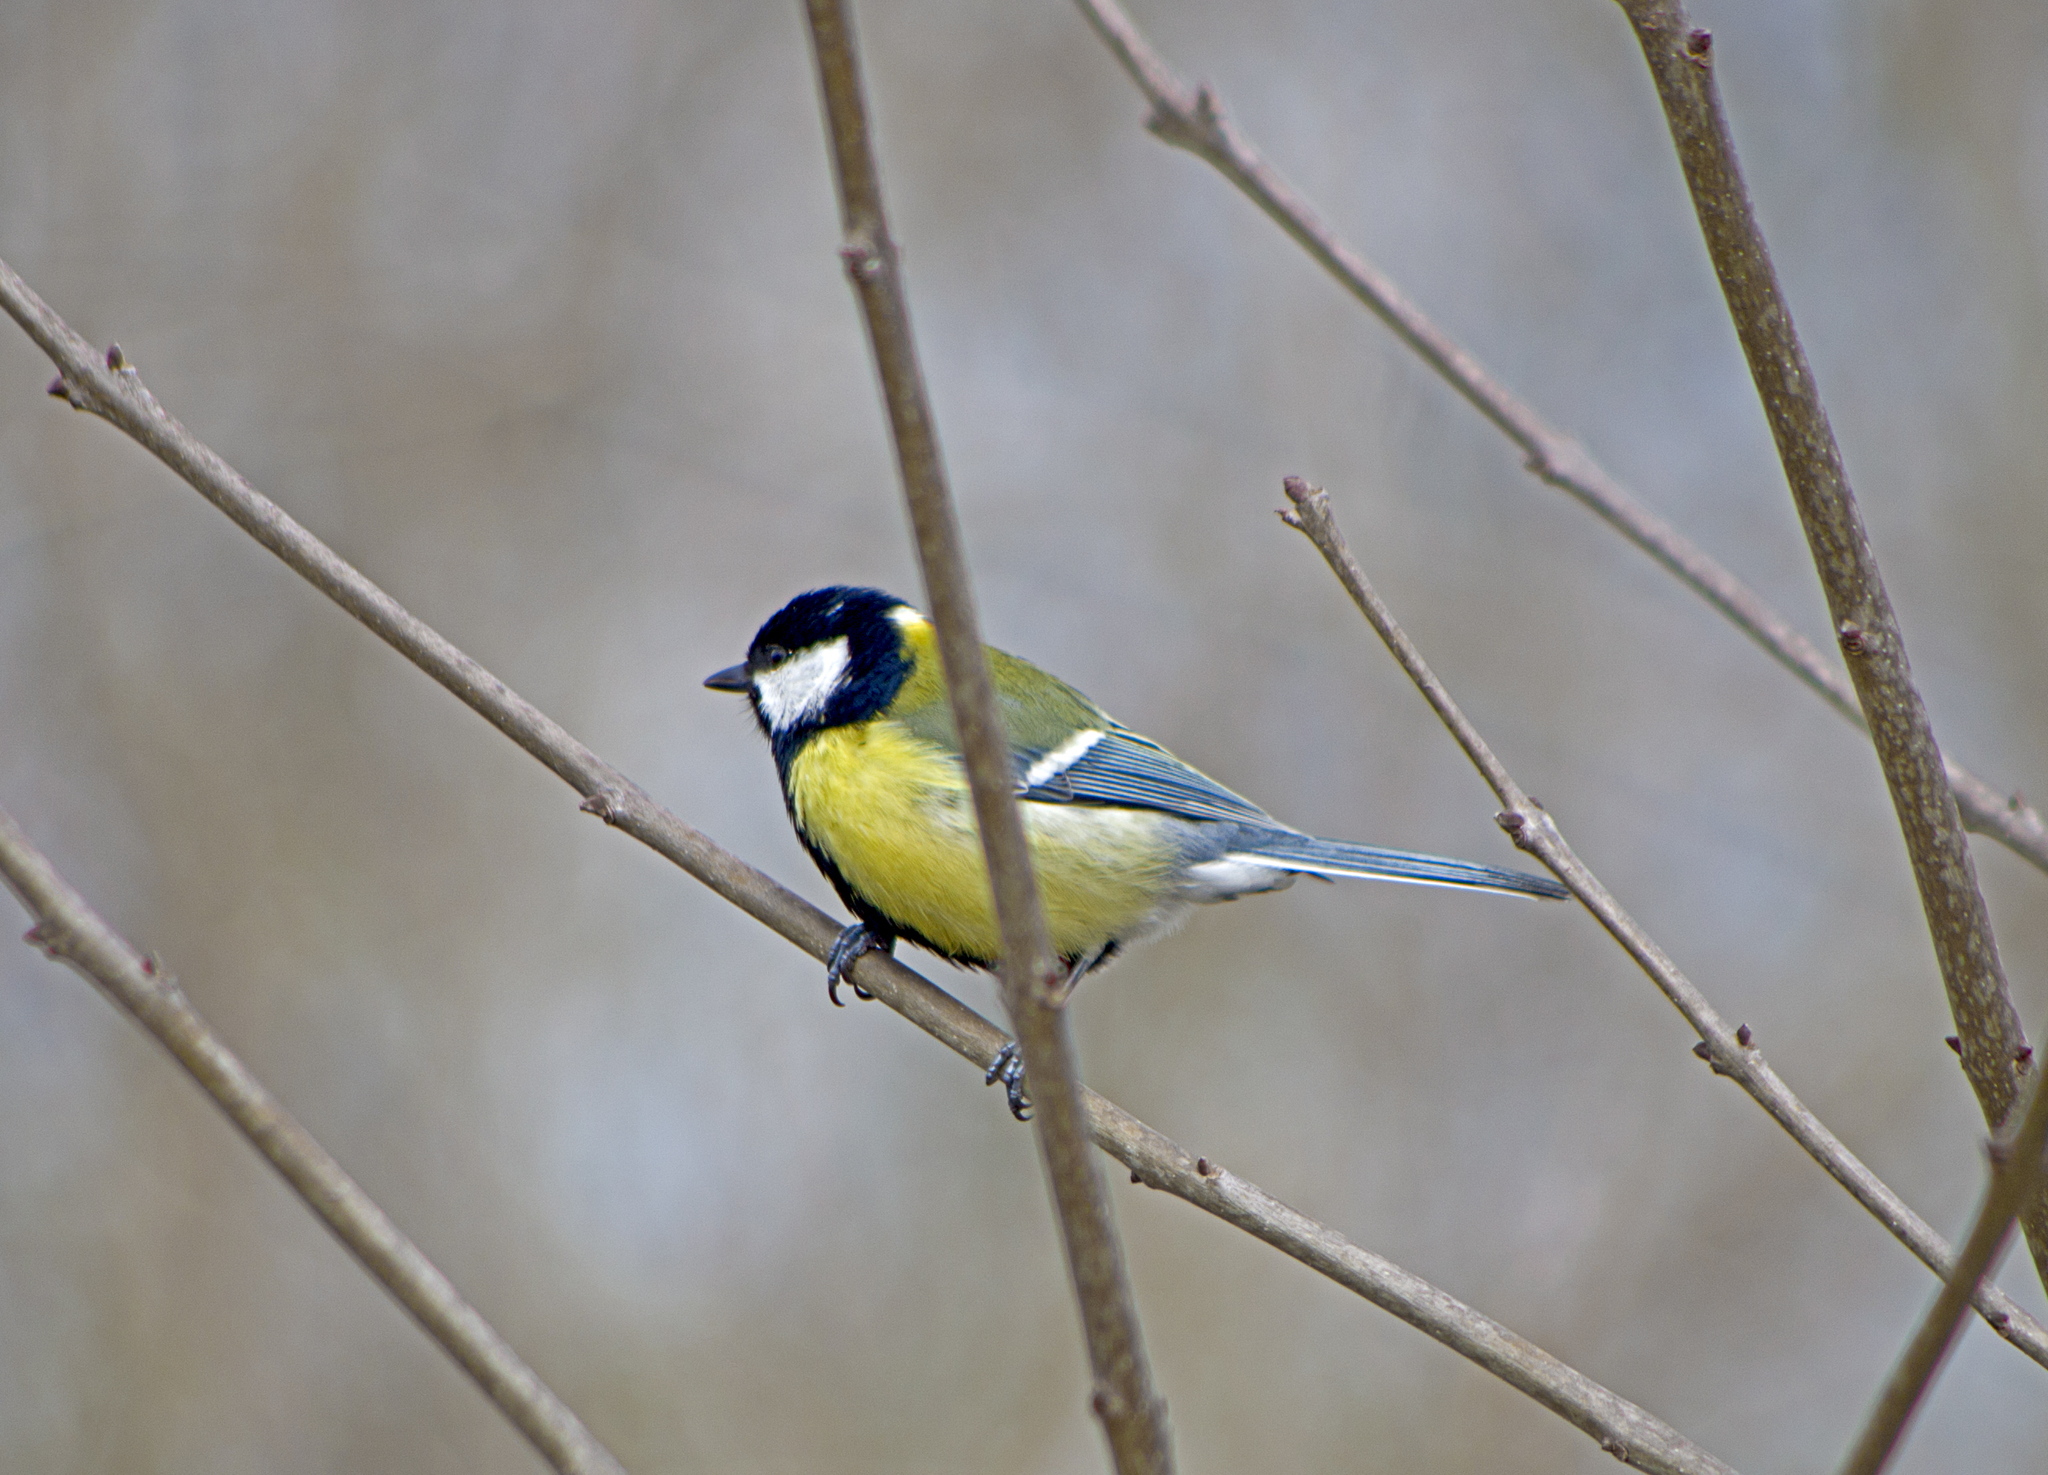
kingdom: Animalia
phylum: Chordata
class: Aves
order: Passeriformes
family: Paridae
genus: Parus
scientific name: Parus major
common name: Great tit
